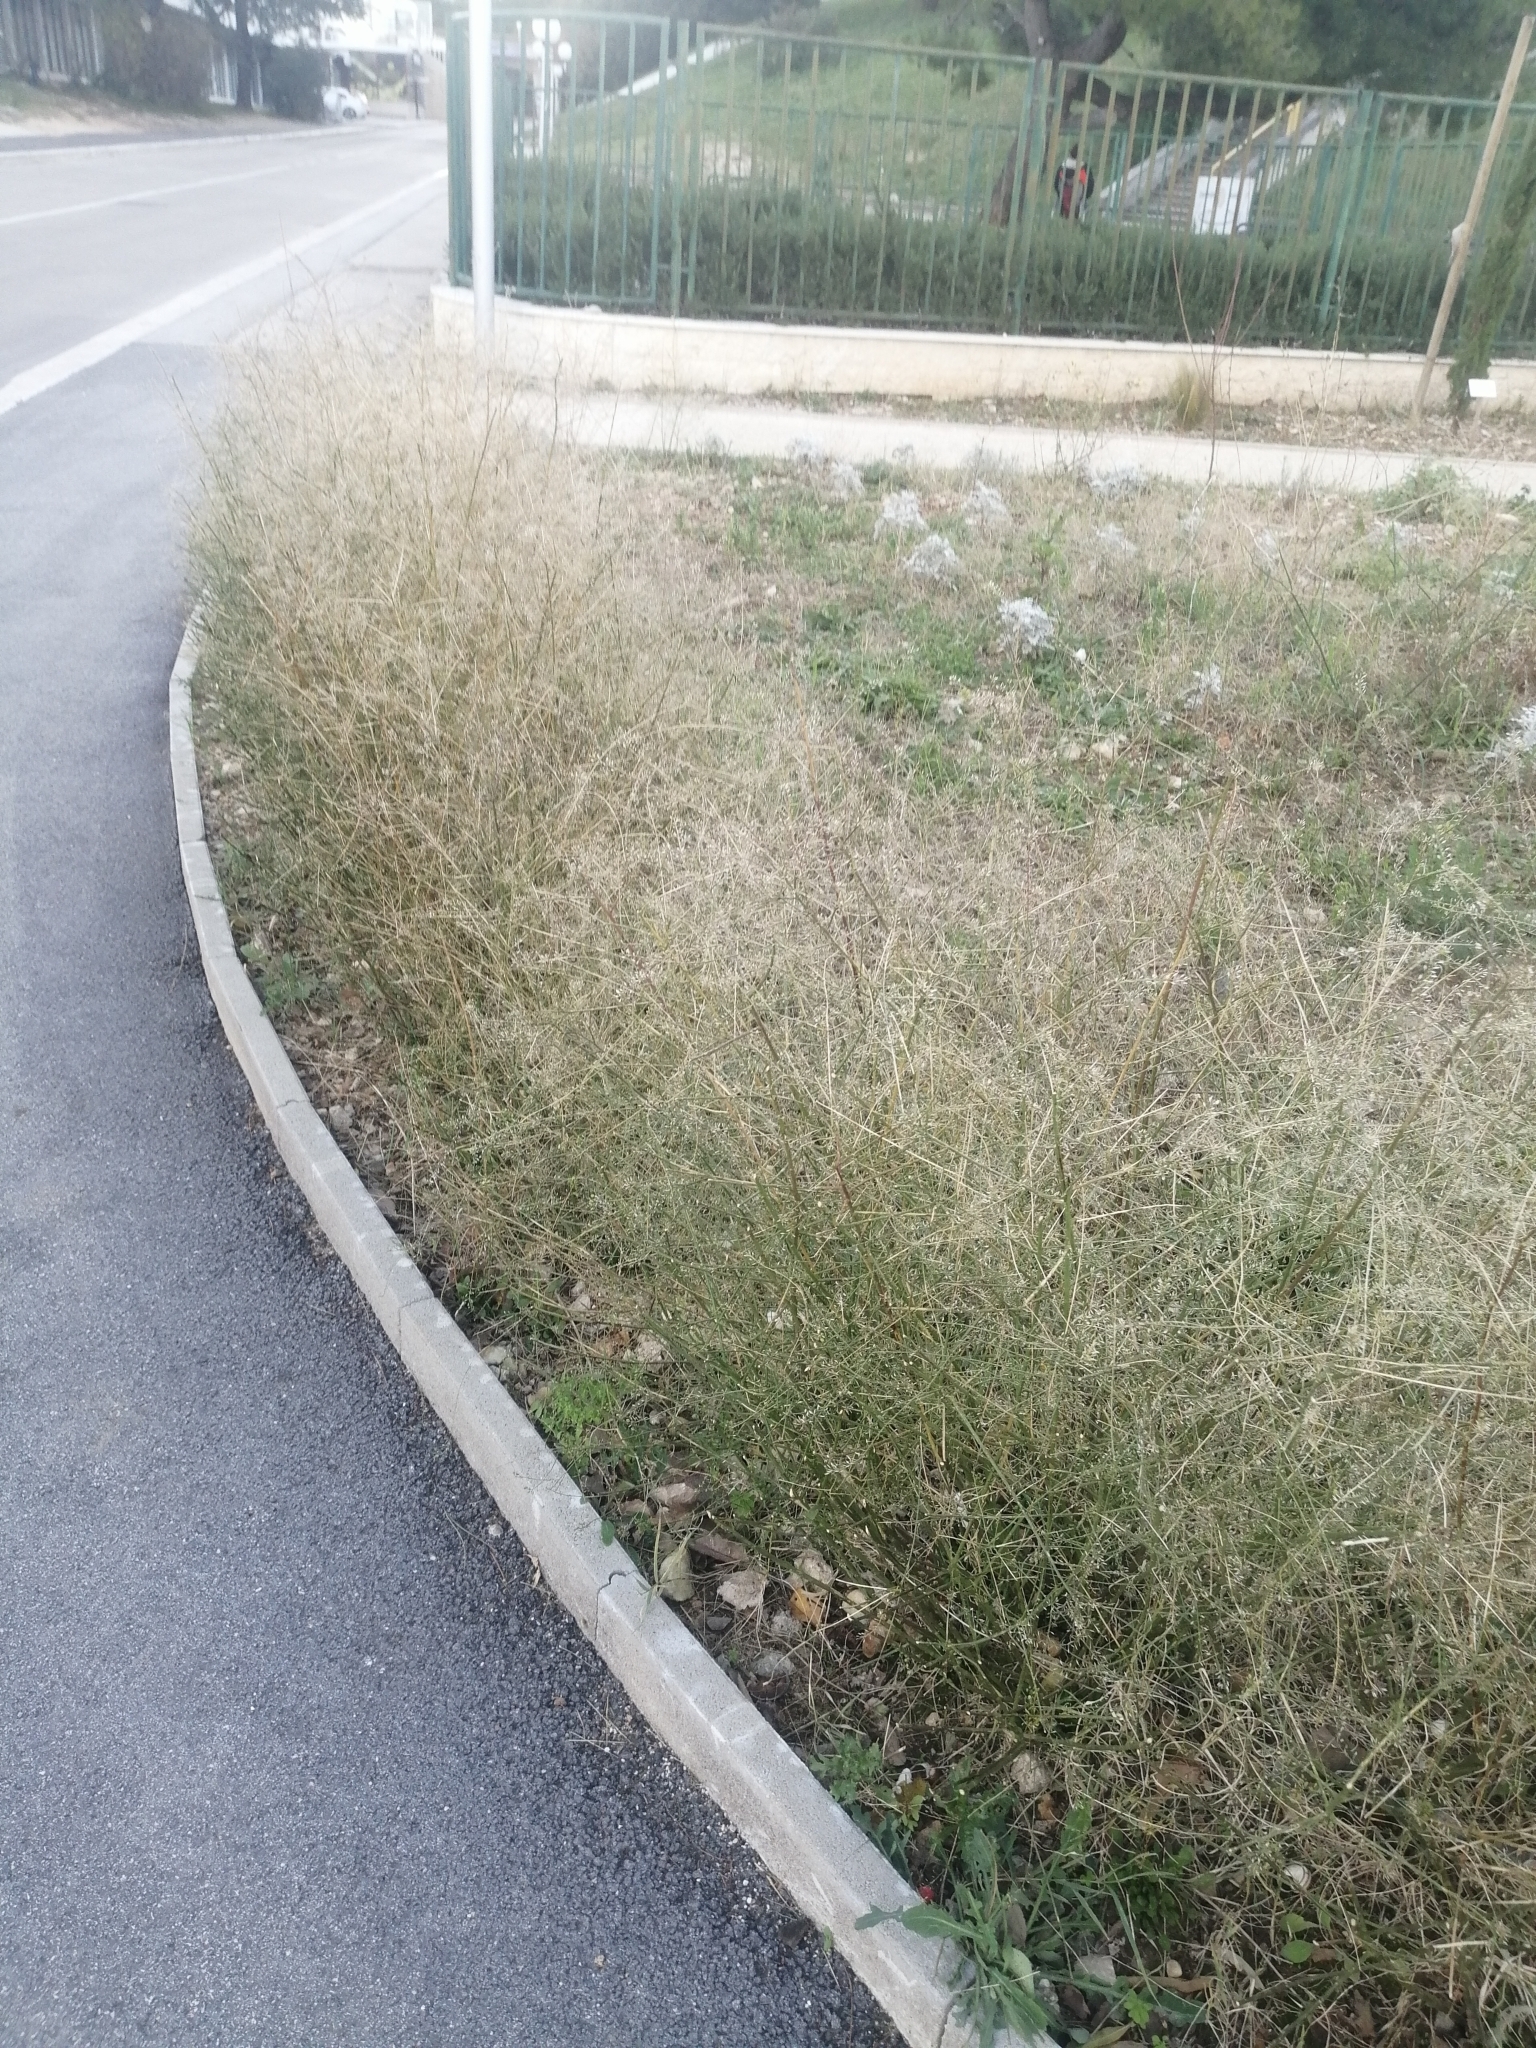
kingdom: Plantae
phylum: Tracheophyta
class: Magnoliopsida
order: Brassicales
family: Brassicaceae
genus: Lepidium
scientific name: Lepidium graminifolium
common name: Tall pepperwort
